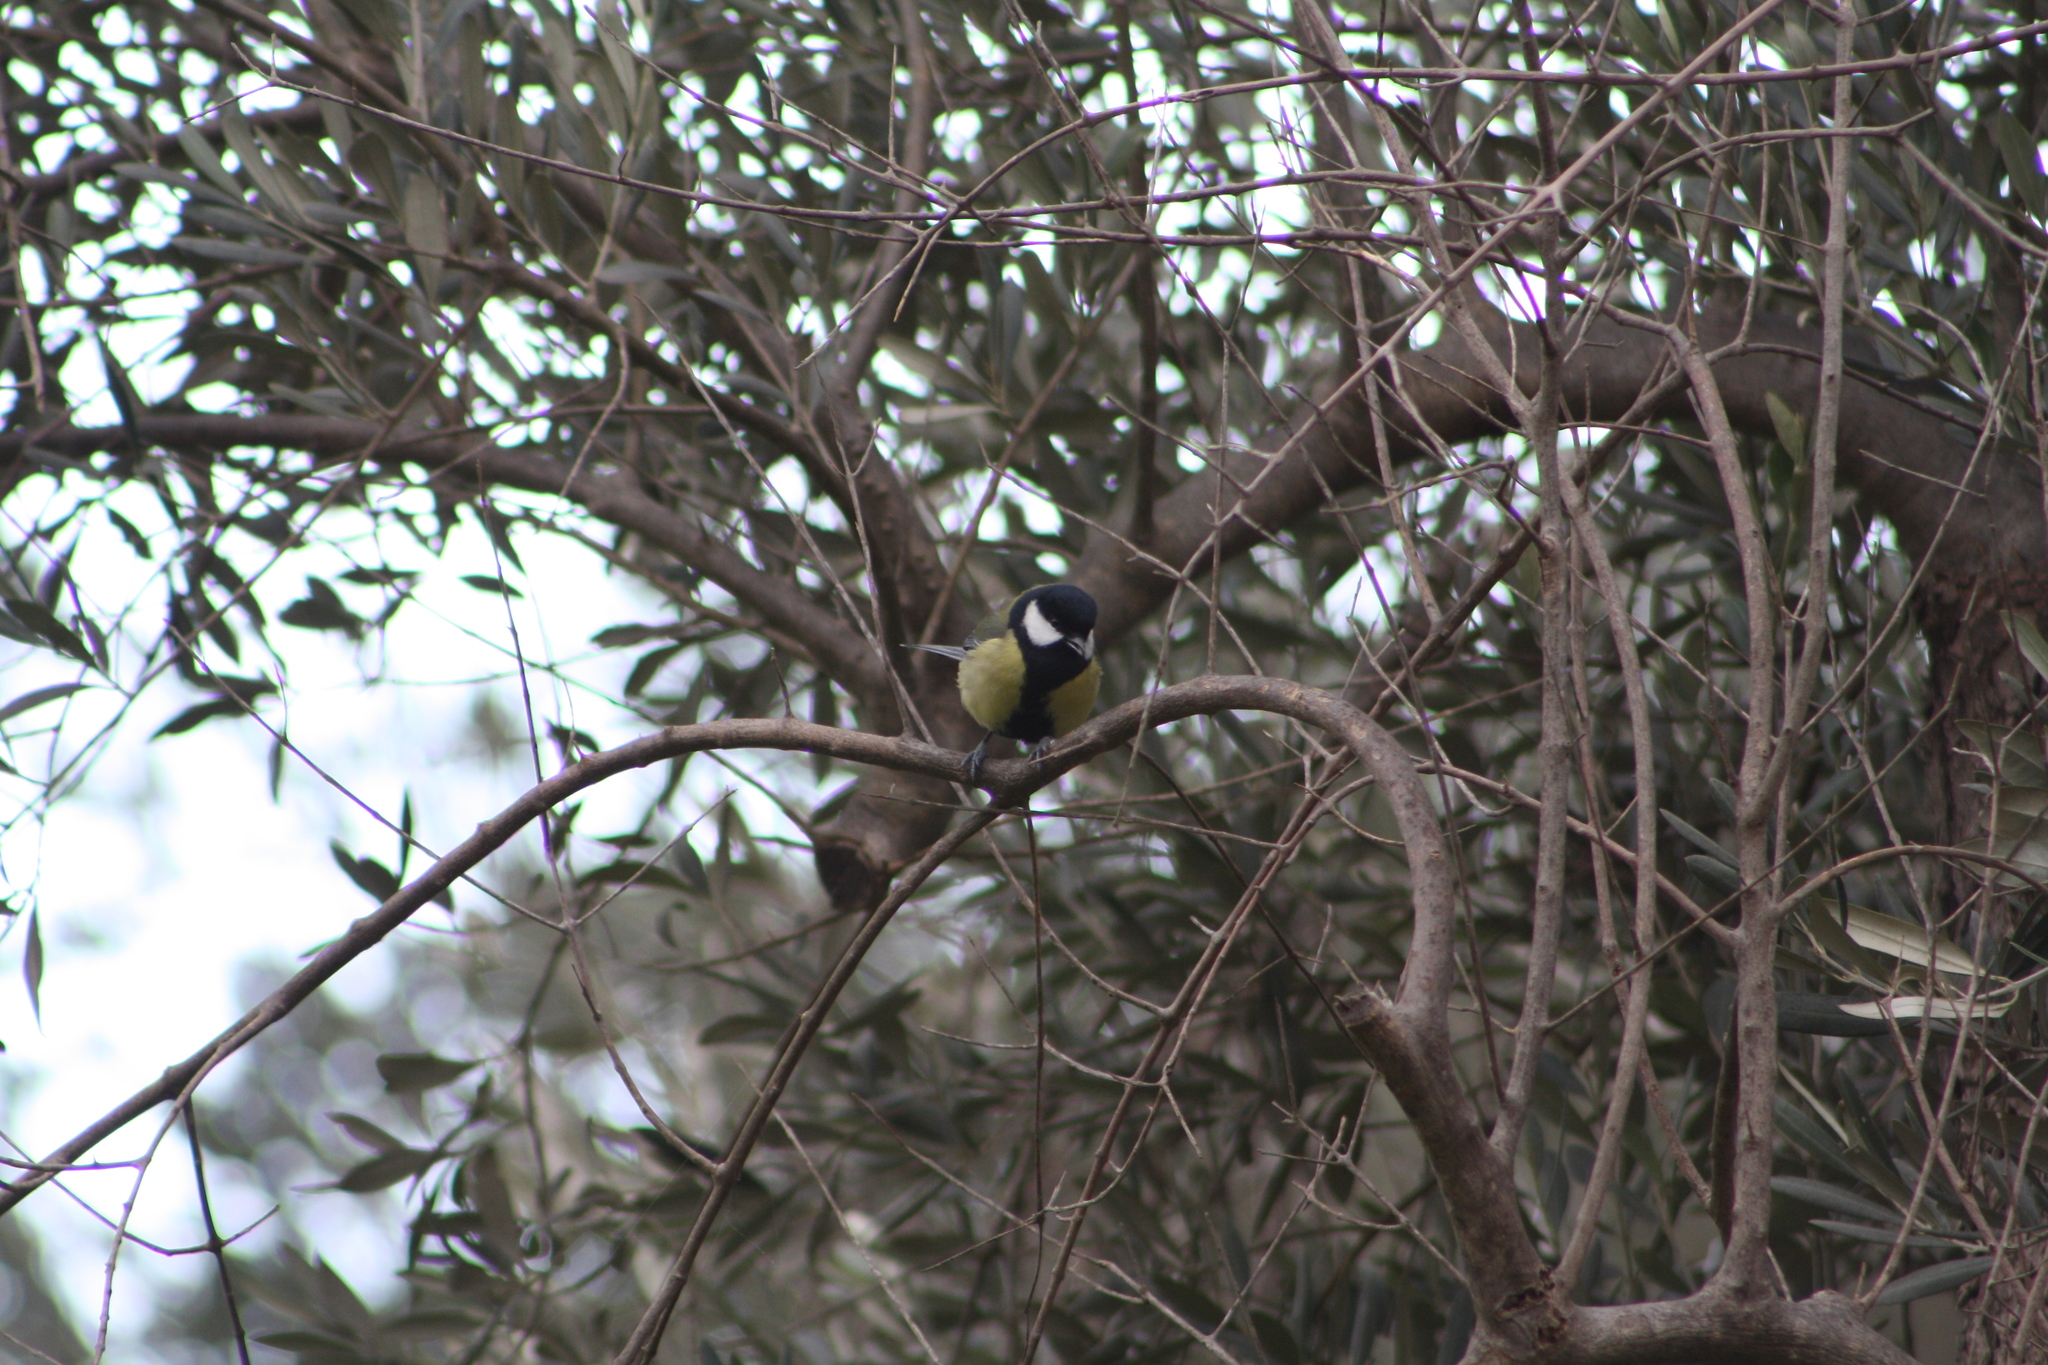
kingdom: Animalia
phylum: Chordata
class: Aves
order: Passeriformes
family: Paridae
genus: Parus
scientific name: Parus major
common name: Great tit
